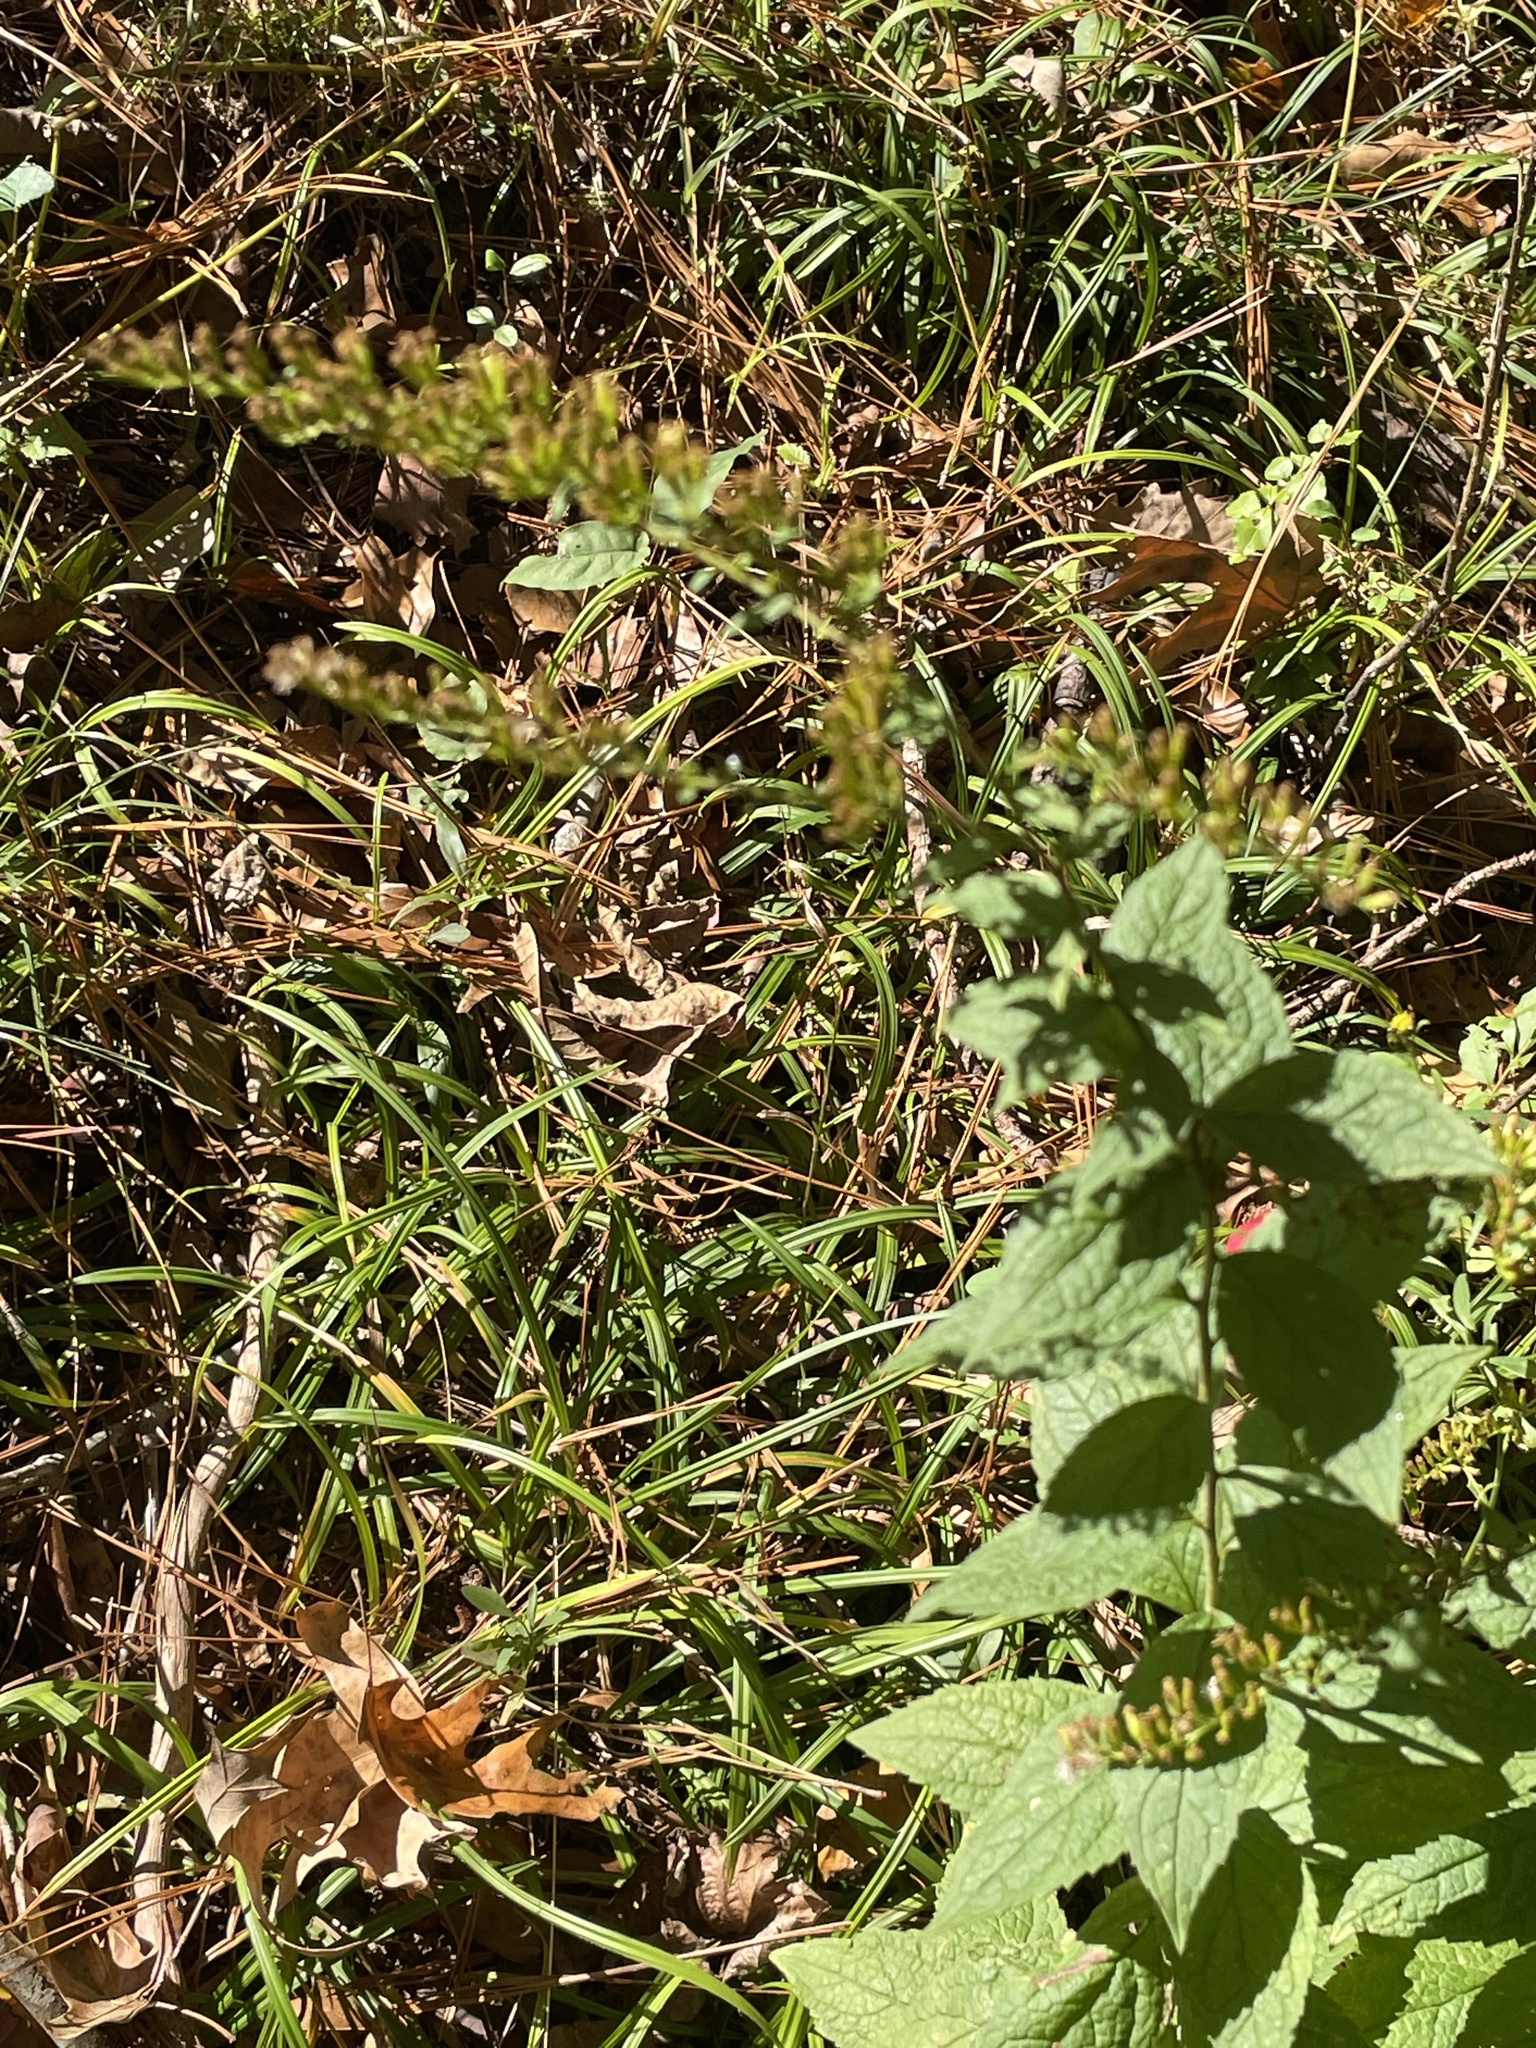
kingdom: Plantae
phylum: Tracheophyta
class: Magnoliopsida
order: Asterales
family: Asteraceae
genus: Solidago
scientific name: Solidago rugosa
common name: Rough-stemmed goldenrod
